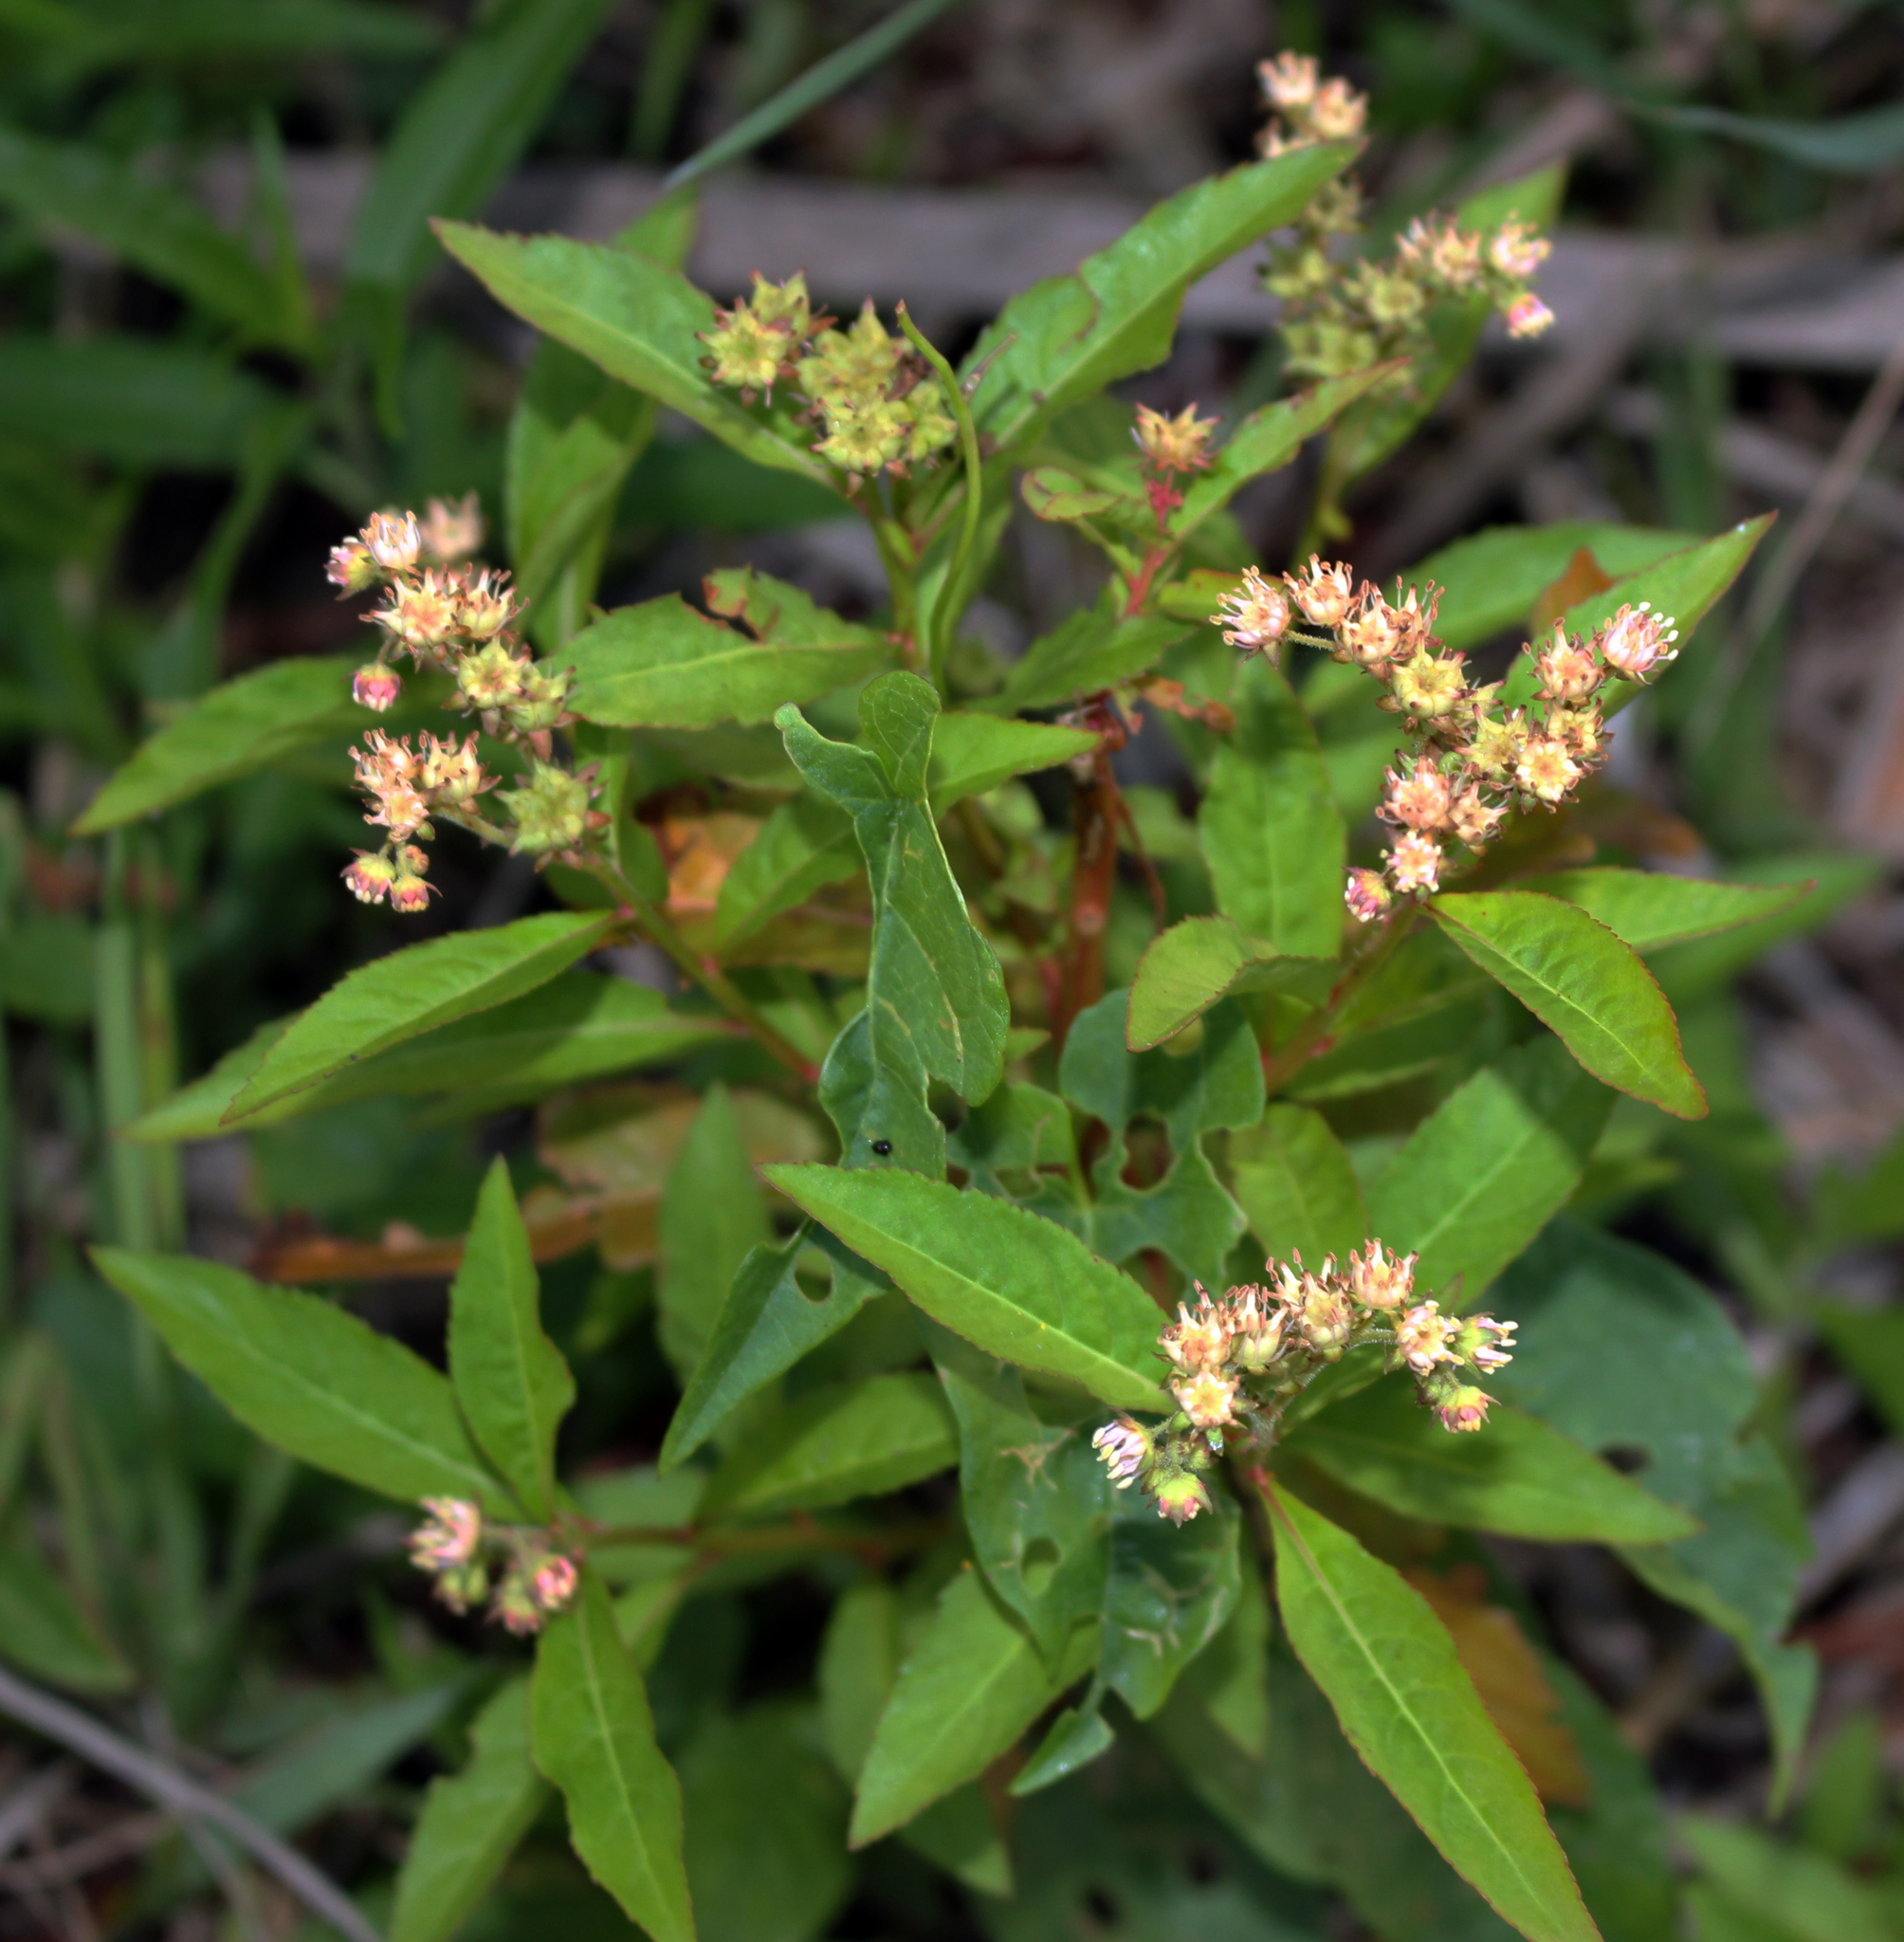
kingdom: Plantae
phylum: Tracheophyta
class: Magnoliopsida
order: Saxifragales
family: Penthoraceae
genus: Penthorum
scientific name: Penthorum sedoides
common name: Ditch stonecrop
